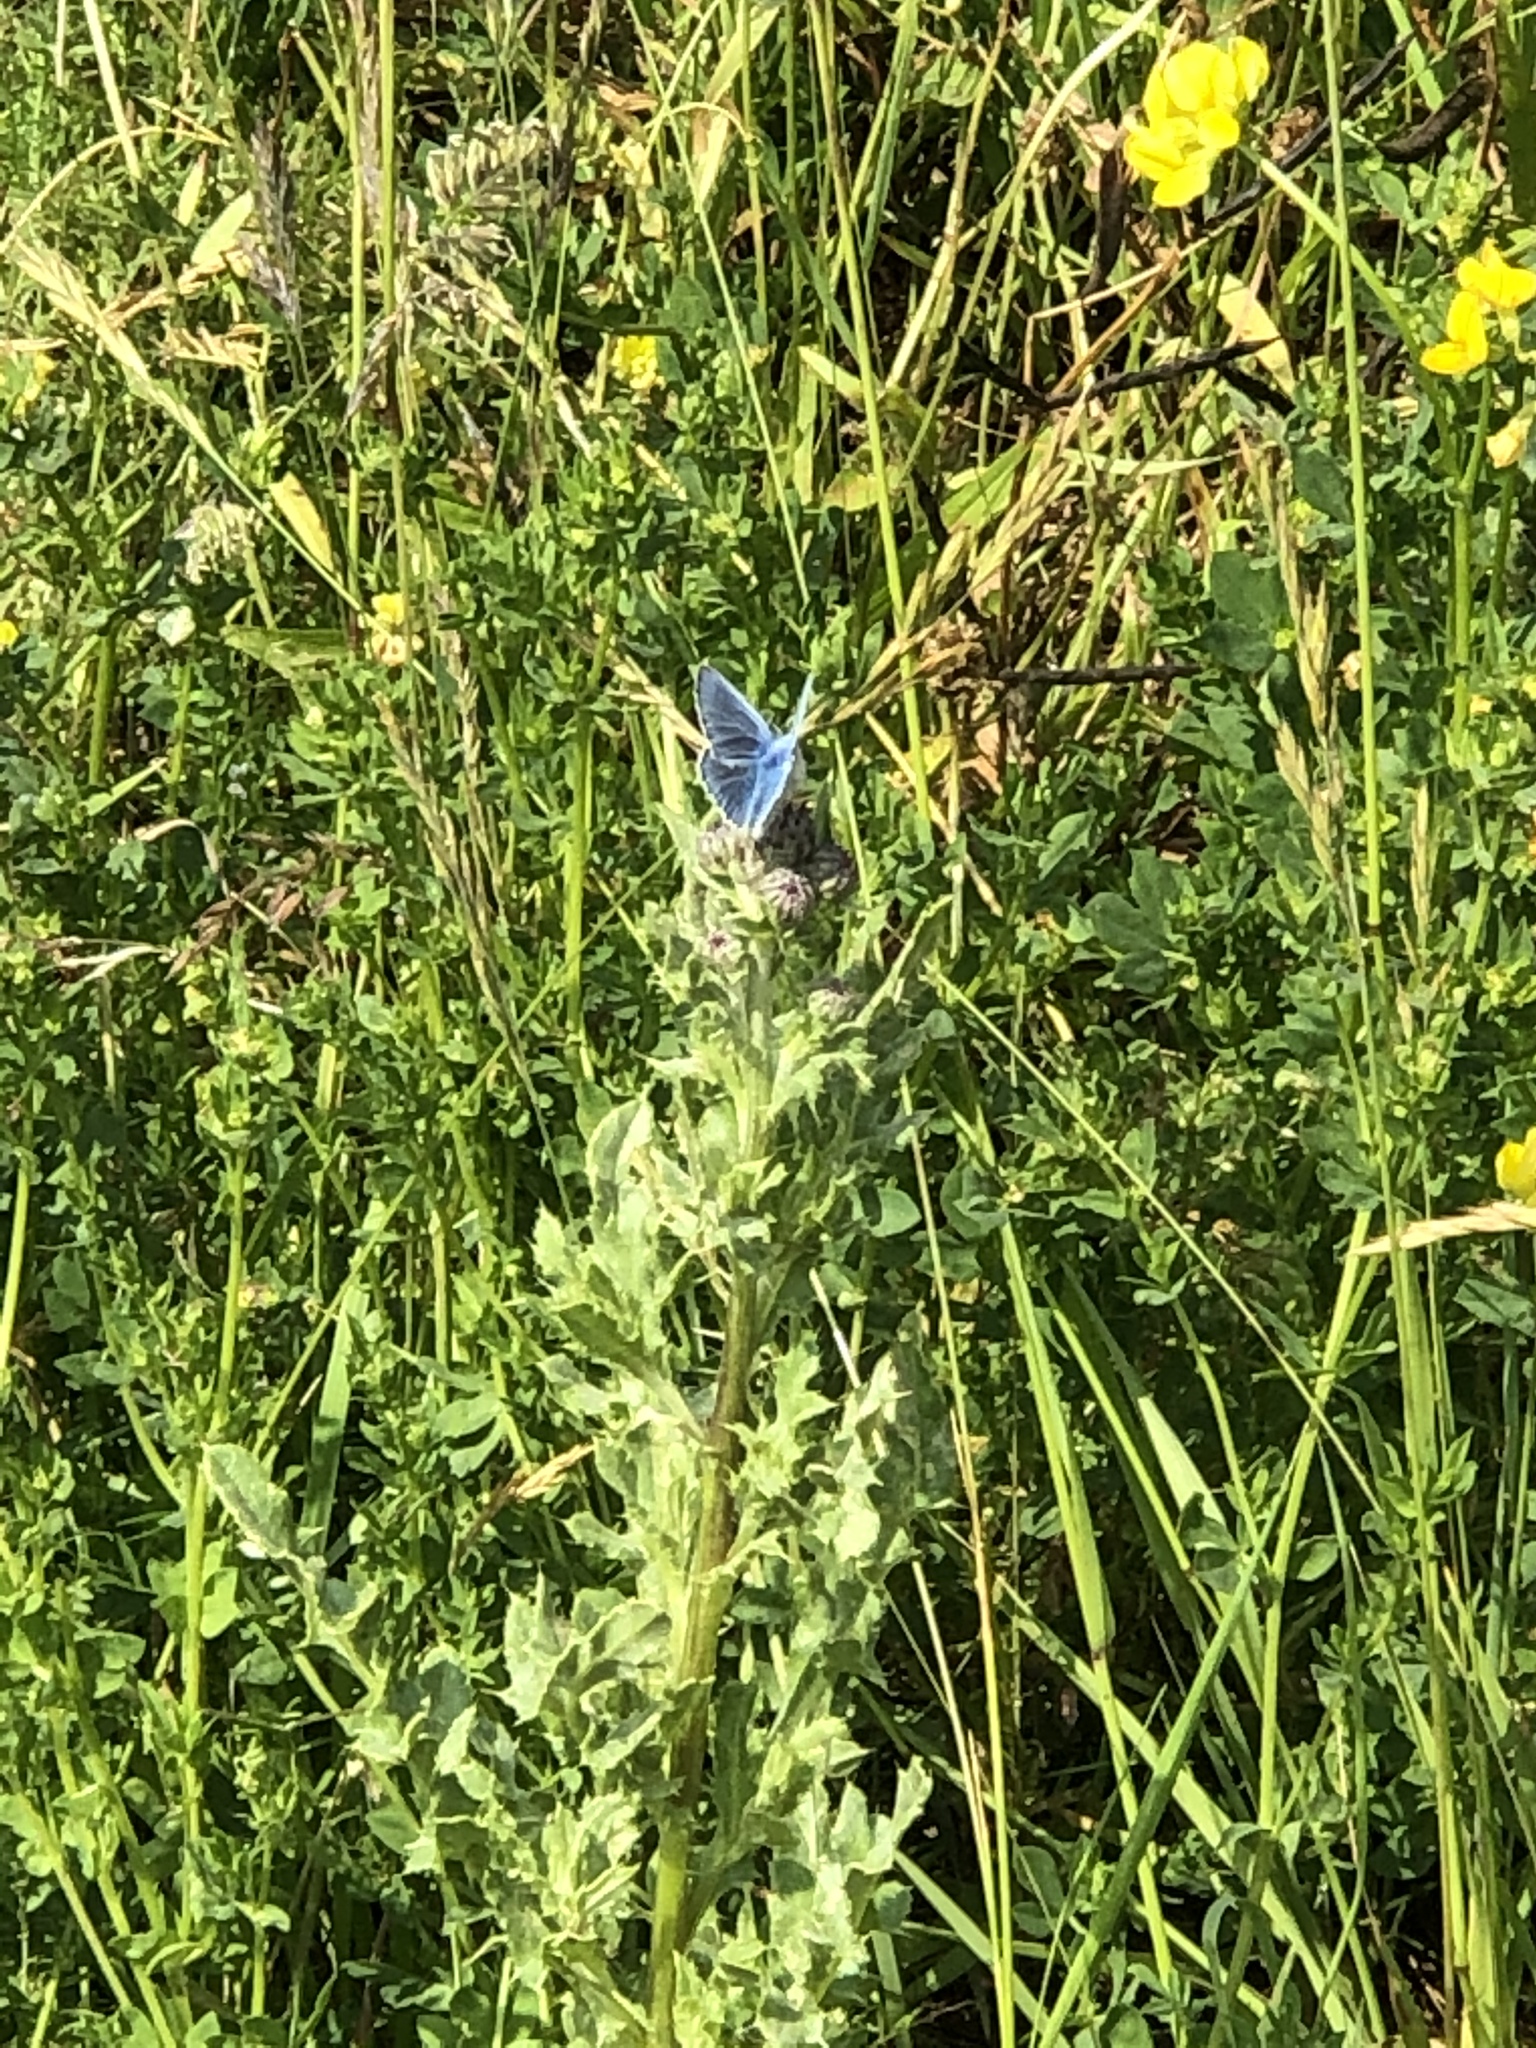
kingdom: Animalia
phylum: Arthropoda
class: Insecta
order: Lepidoptera
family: Lycaenidae
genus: Polyommatus
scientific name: Polyommatus icarus
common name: Common blue
